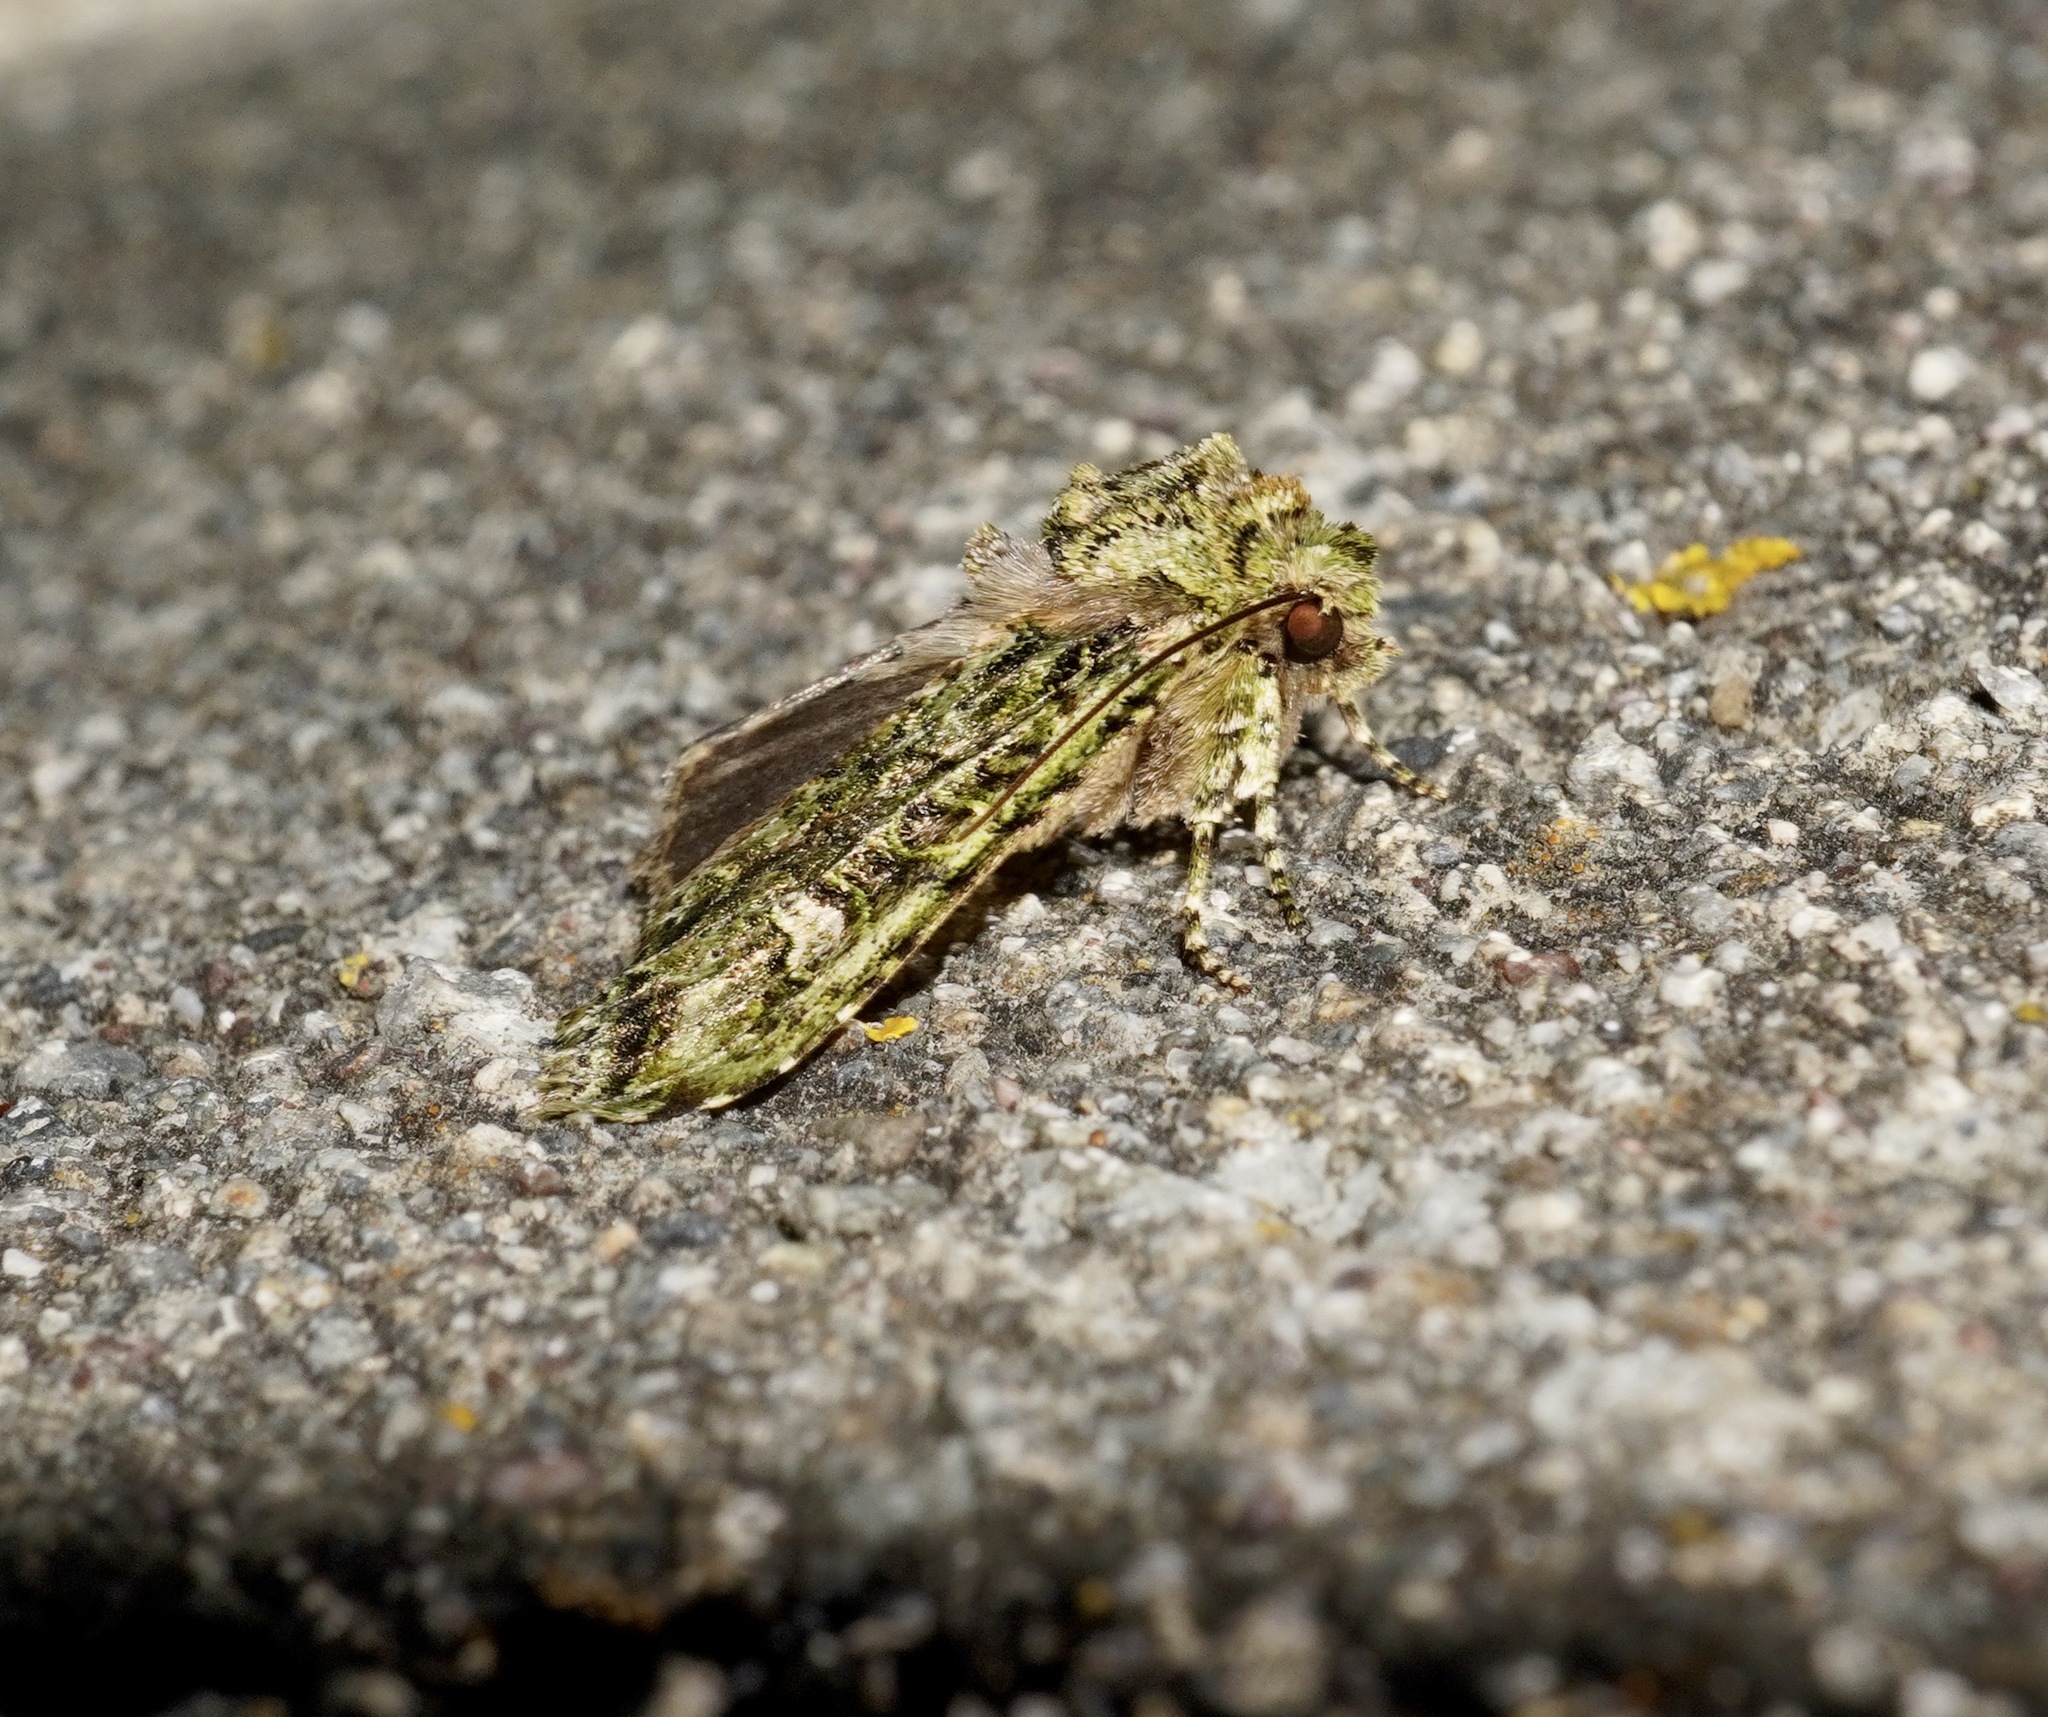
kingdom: Animalia
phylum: Arthropoda
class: Insecta
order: Lepidoptera
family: Noctuidae
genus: Ichneutica
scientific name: Ichneutica
